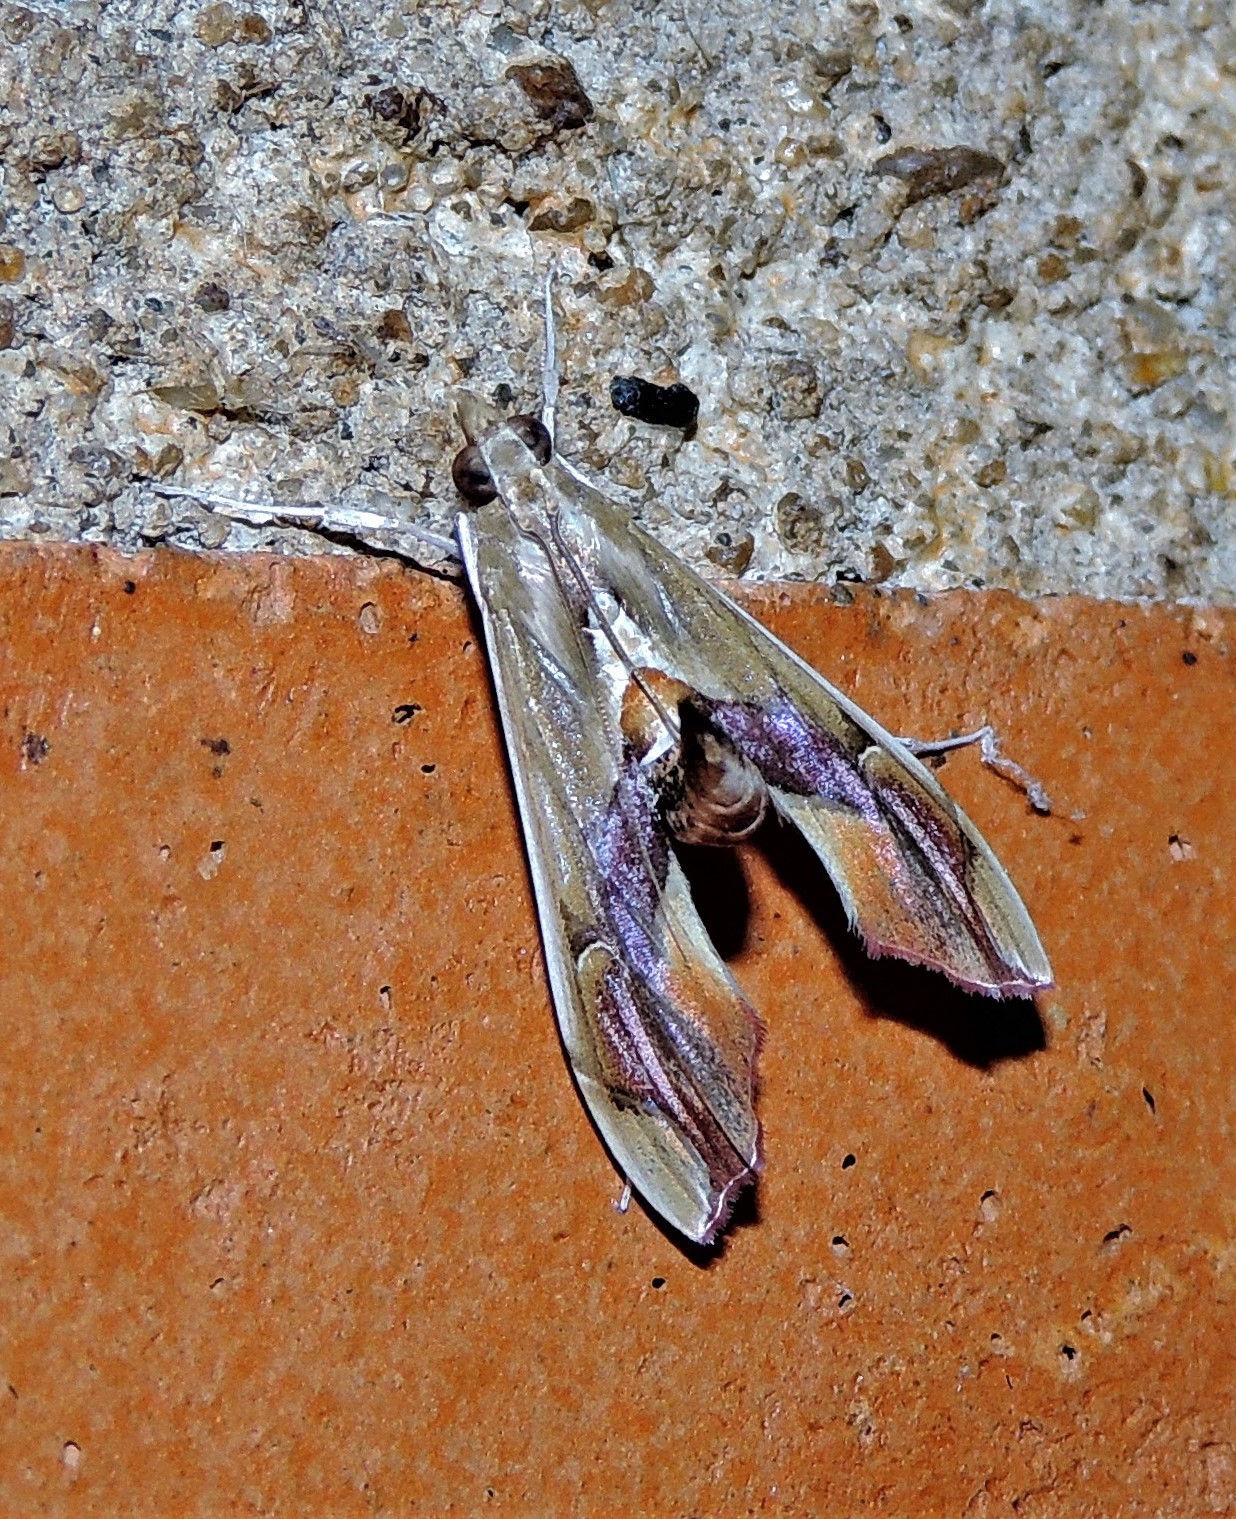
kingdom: Animalia
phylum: Arthropoda
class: Insecta
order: Lepidoptera
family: Crambidae
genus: Agathodes
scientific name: Agathodes designalis
